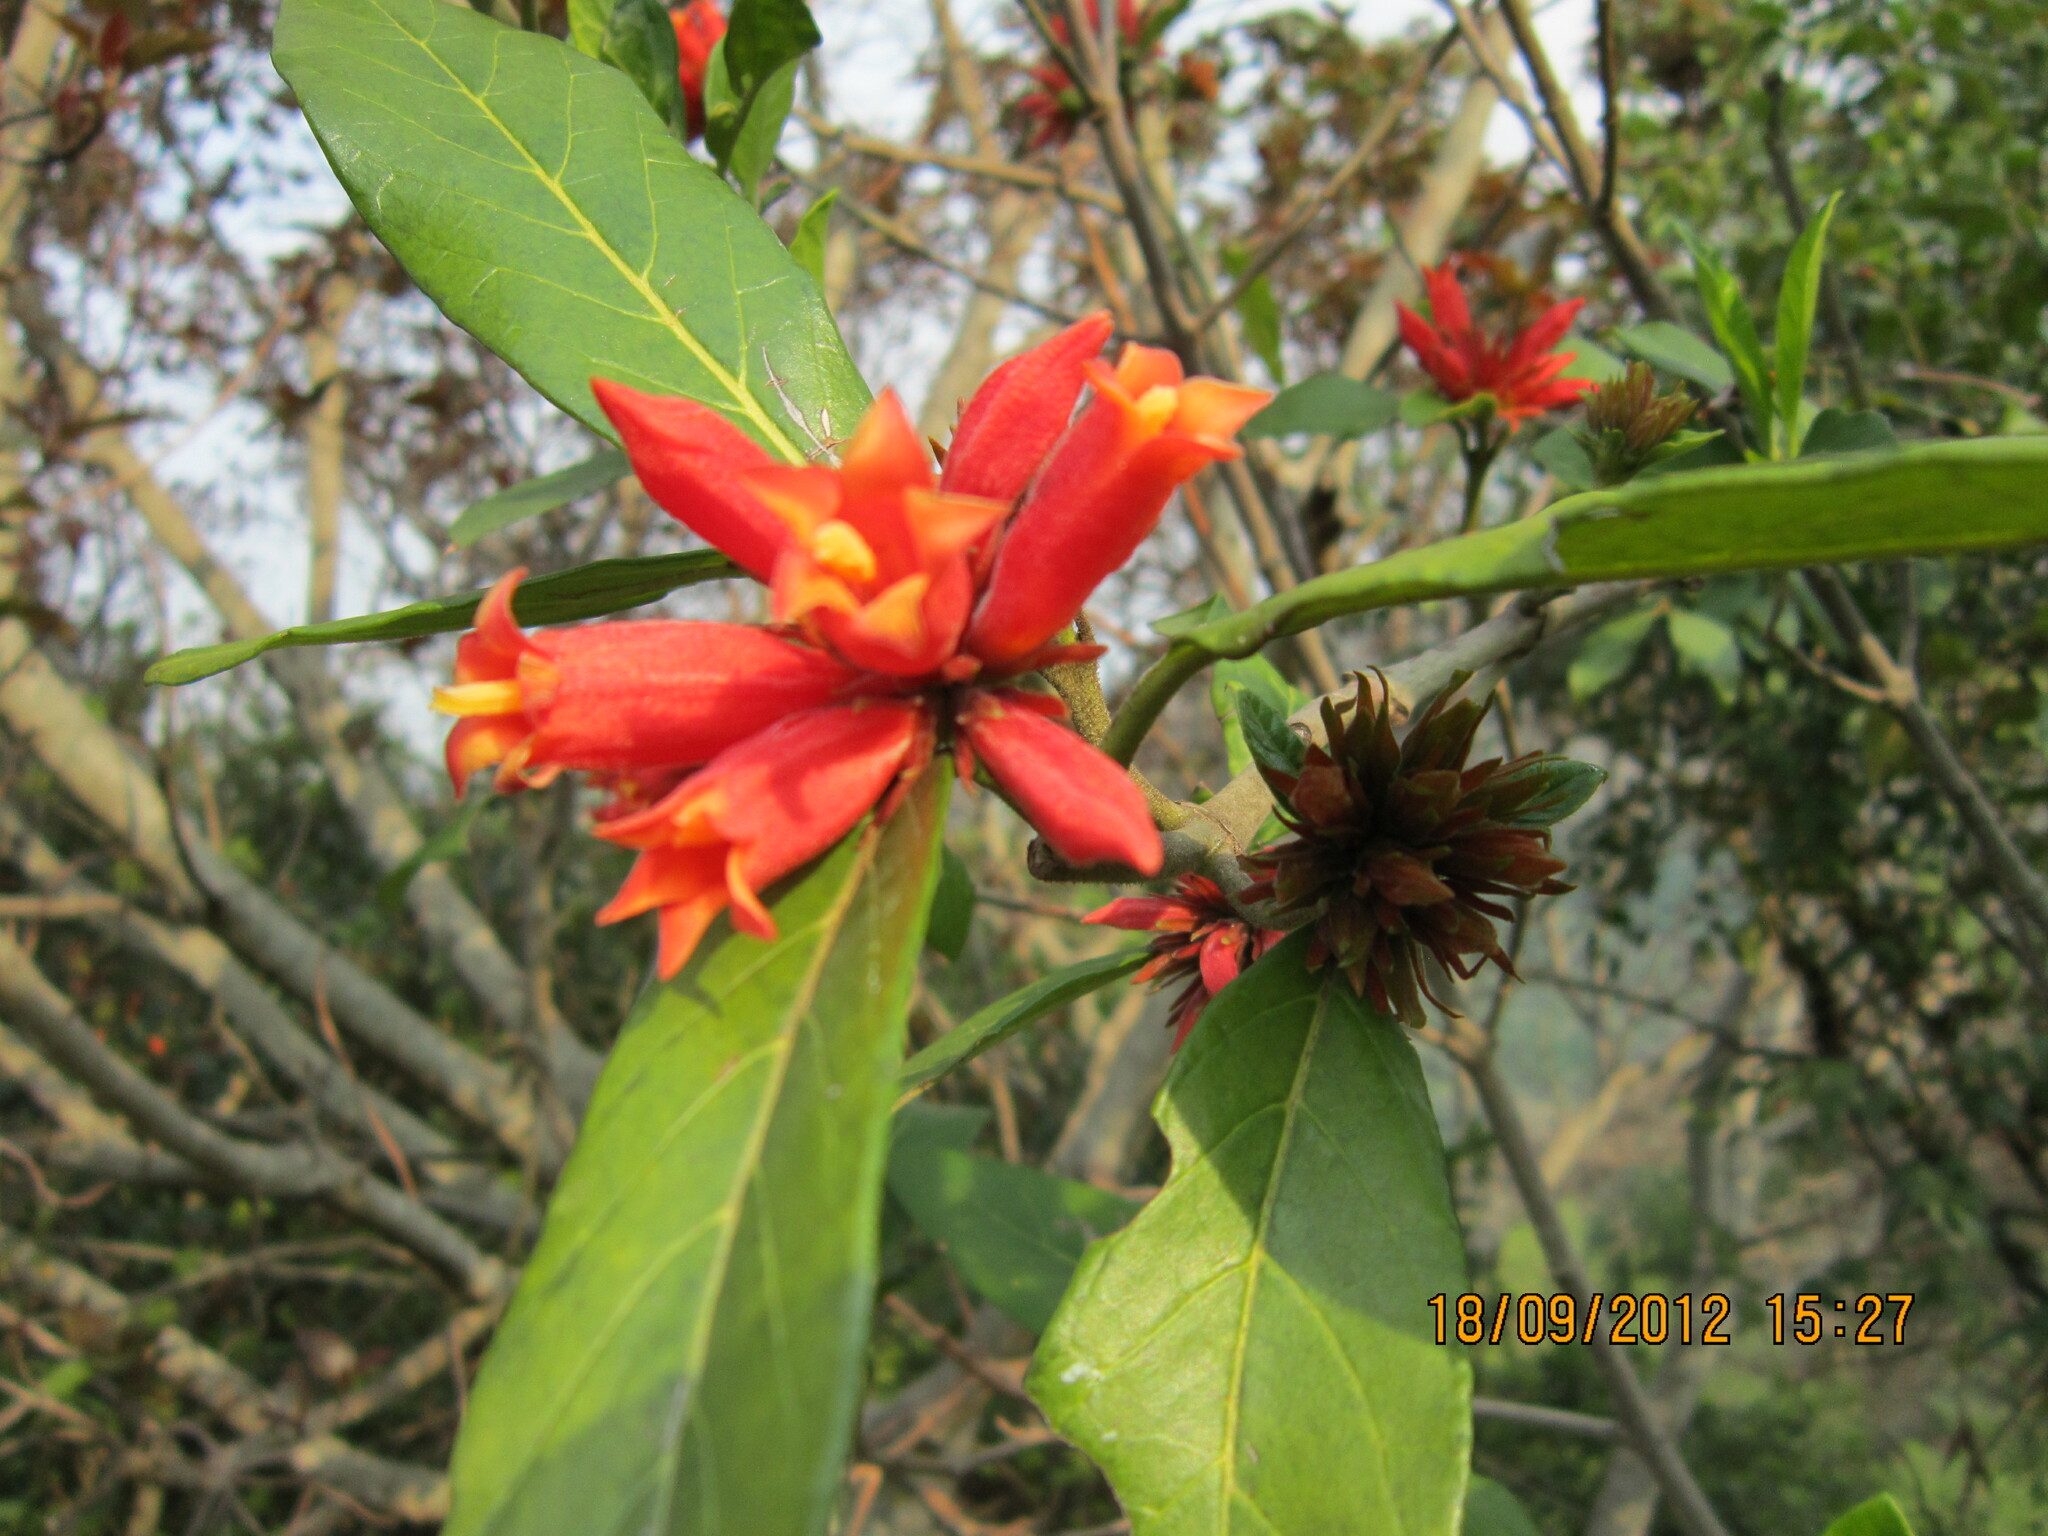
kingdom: Plantae
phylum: Tracheophyta
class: Magnoliopsida
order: Gentianales
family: Rubiaceae
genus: Burchellia
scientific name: Burchellia bubalina
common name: Wild pomegranate
